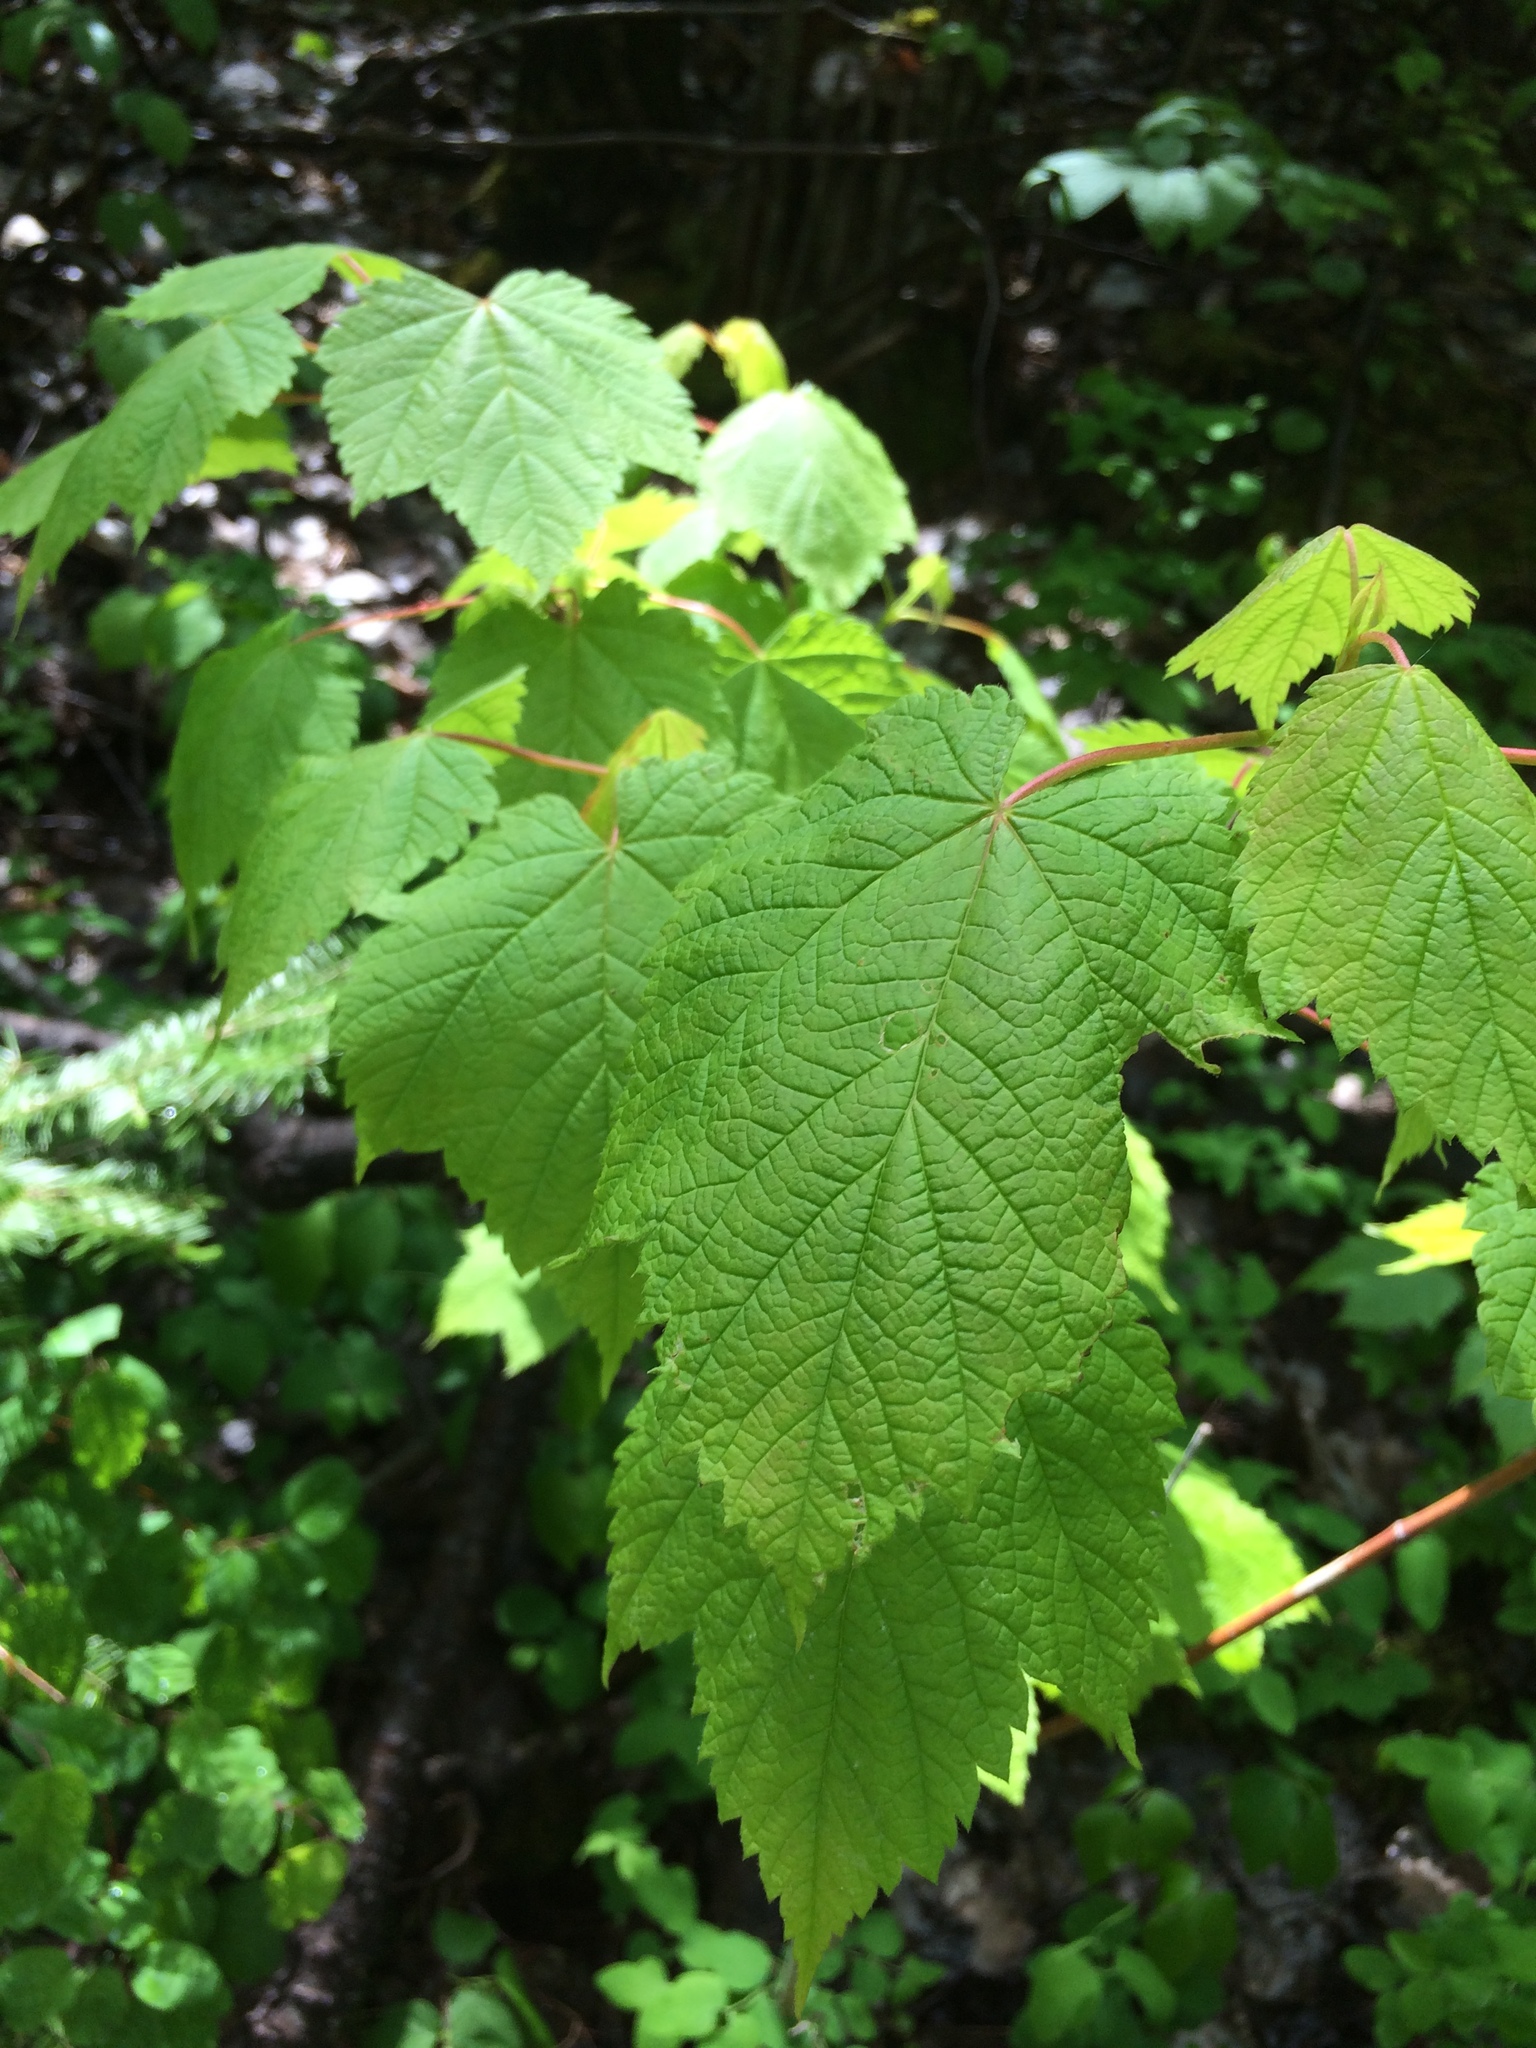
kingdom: Plantae
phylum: Tracheophyta
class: Magnoliopsida
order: Sapindales
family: Sapindaceae
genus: Acer
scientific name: Acer spicatum
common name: Mountain maple
